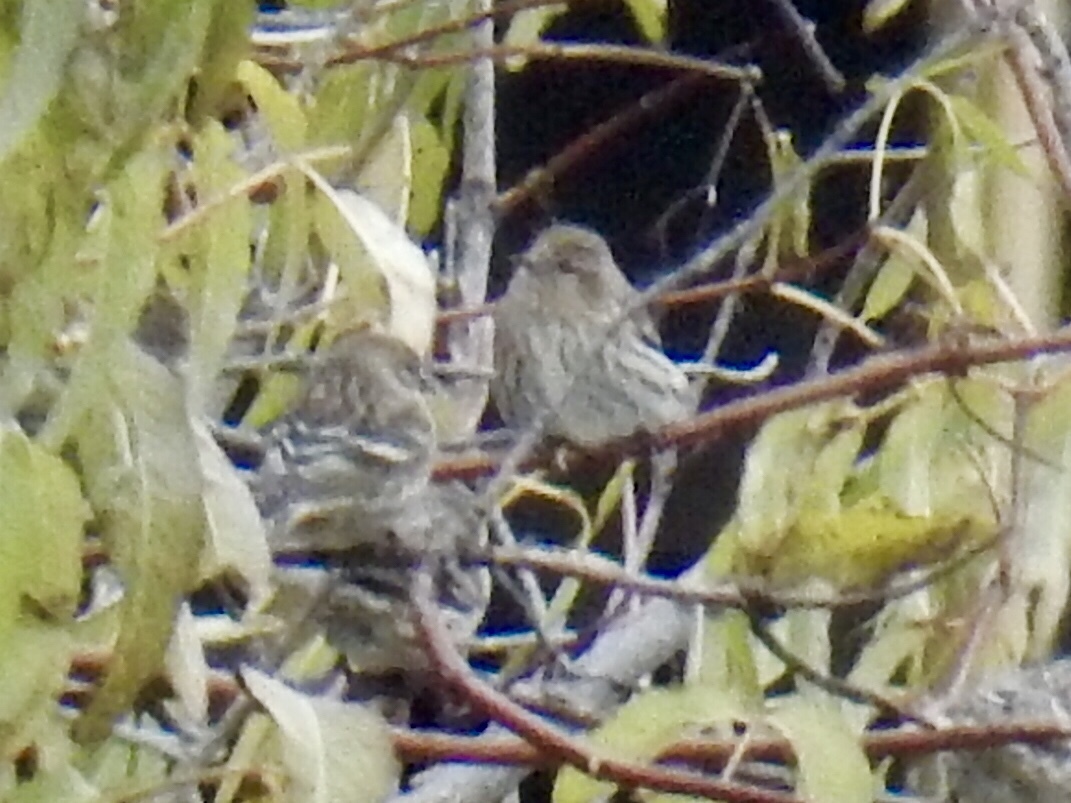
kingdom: Animalia
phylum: Chordata
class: Aves
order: Passeriformes
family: Fringillidae
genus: Spinus
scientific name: Spinus pinus
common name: Pine siskin
